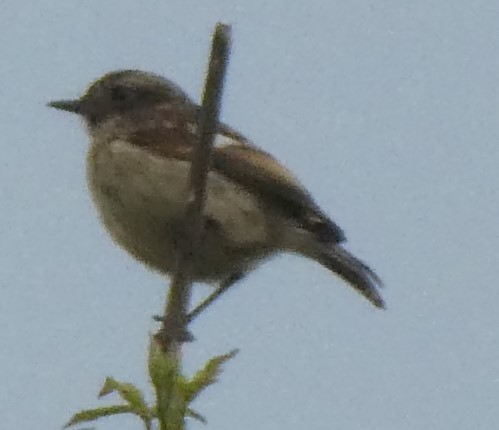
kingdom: Animalia
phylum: Chordata
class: Aves
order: Passeriformes
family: Muscicapidae
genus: Saxicola
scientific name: Saxicola rubicola
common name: European stonechat
